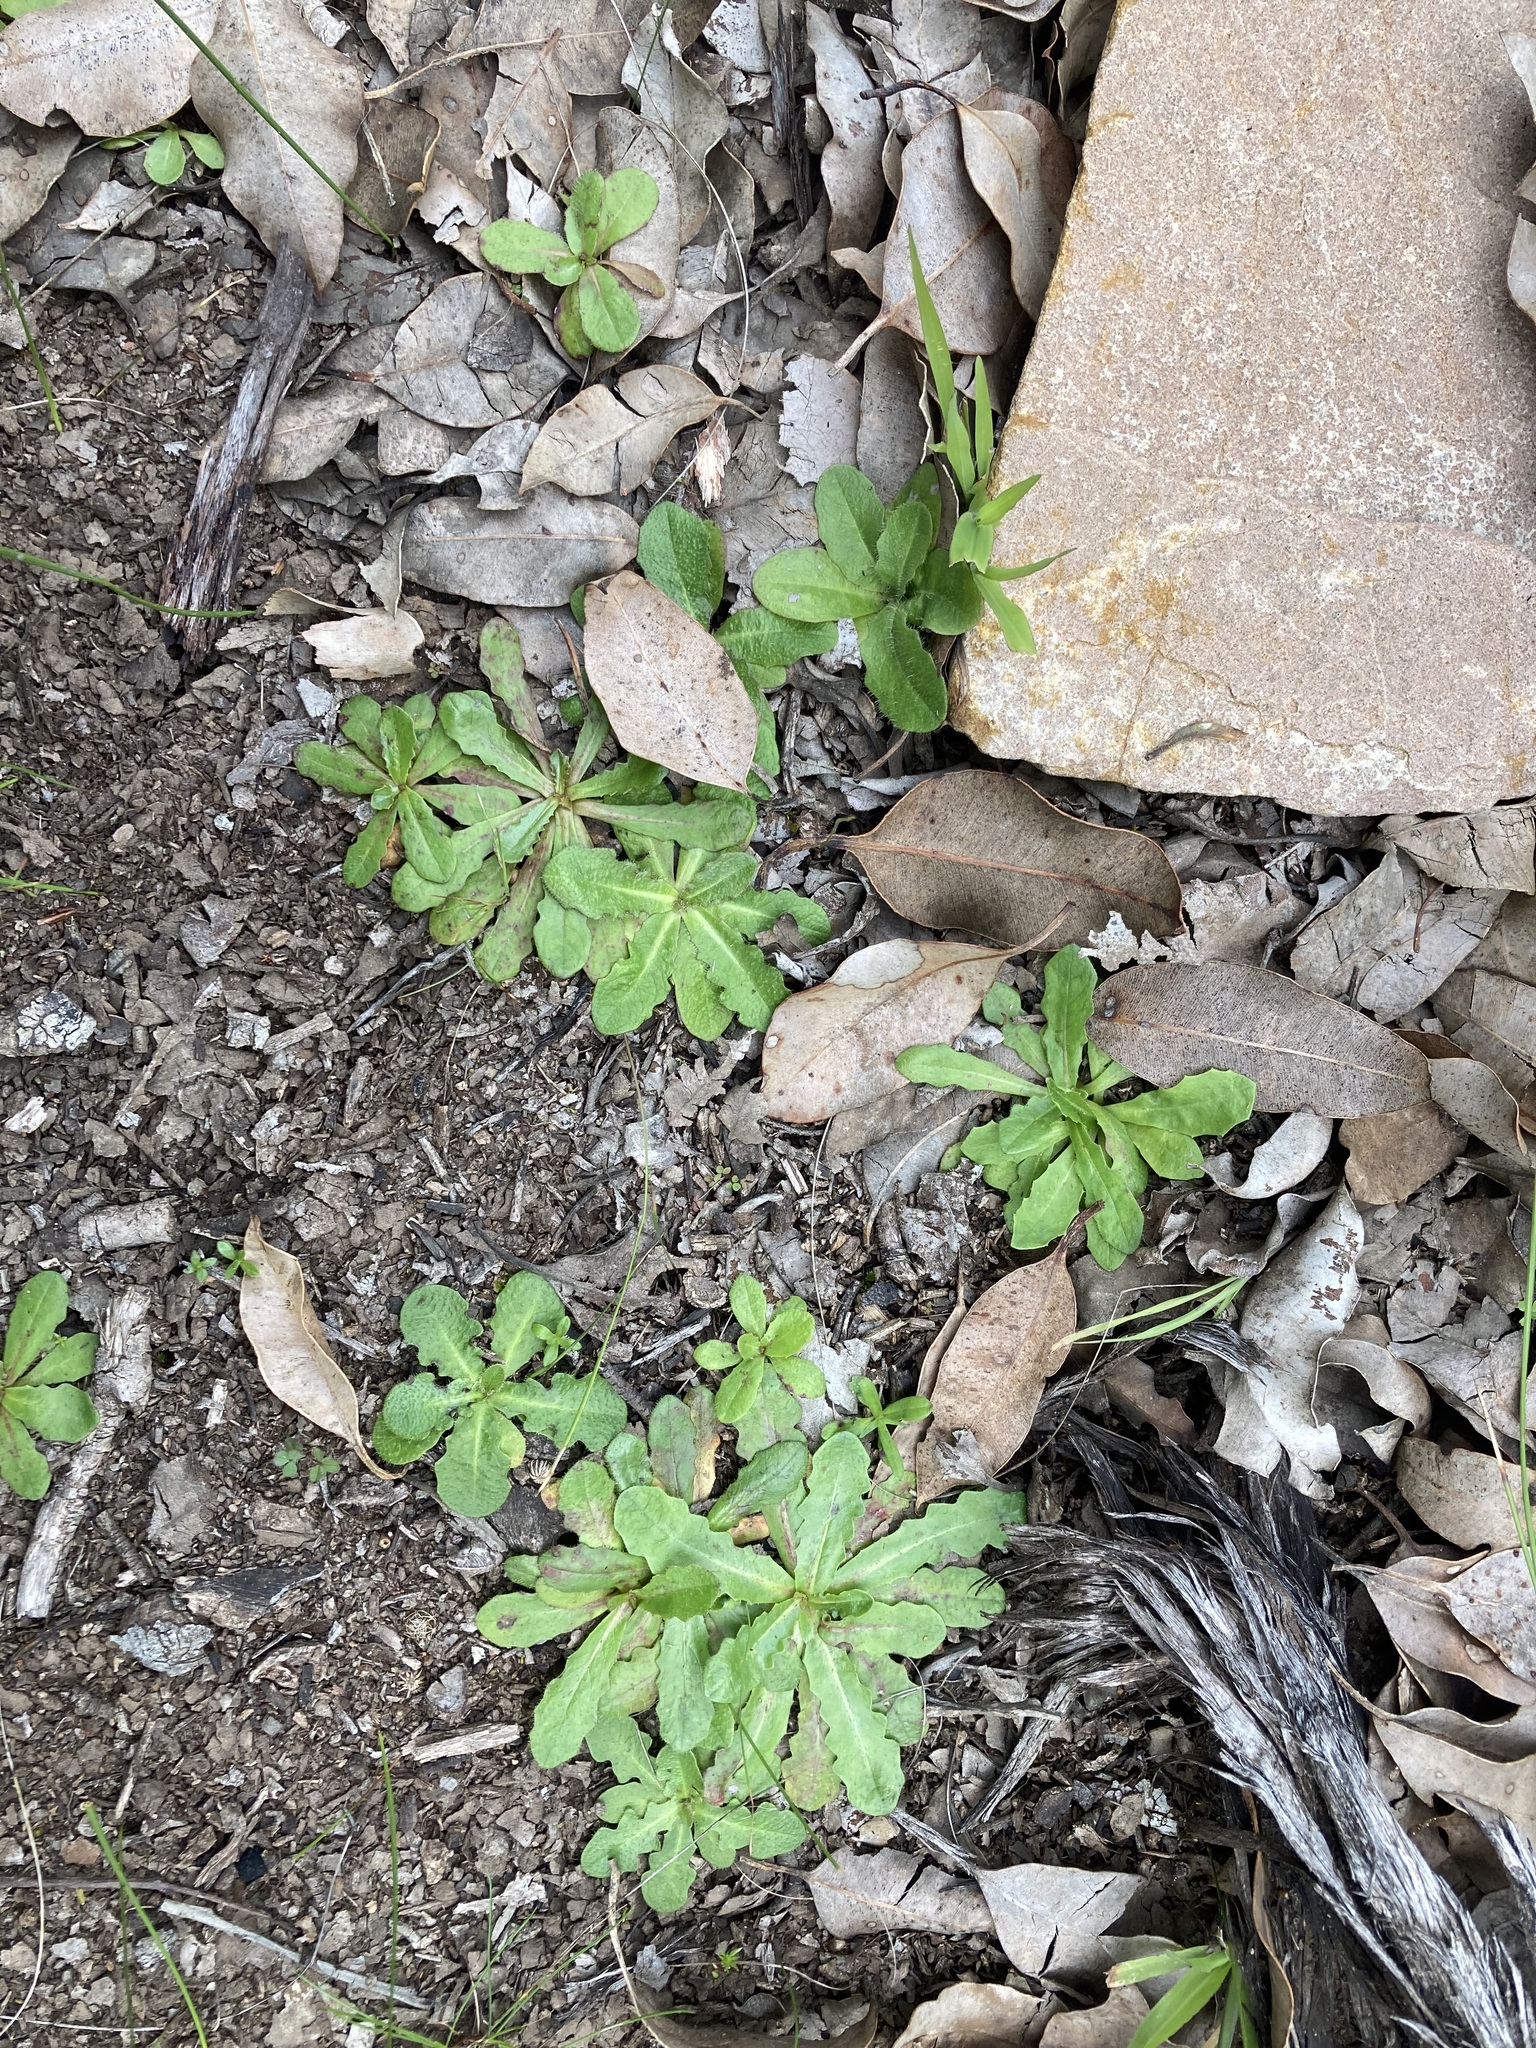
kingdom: Plantae
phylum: Tracheophyta
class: Magnoliopsida
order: Asterales
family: Asteraceae
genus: Hypochaeris
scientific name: Hypochaeris glabra
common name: Smooth catsear
